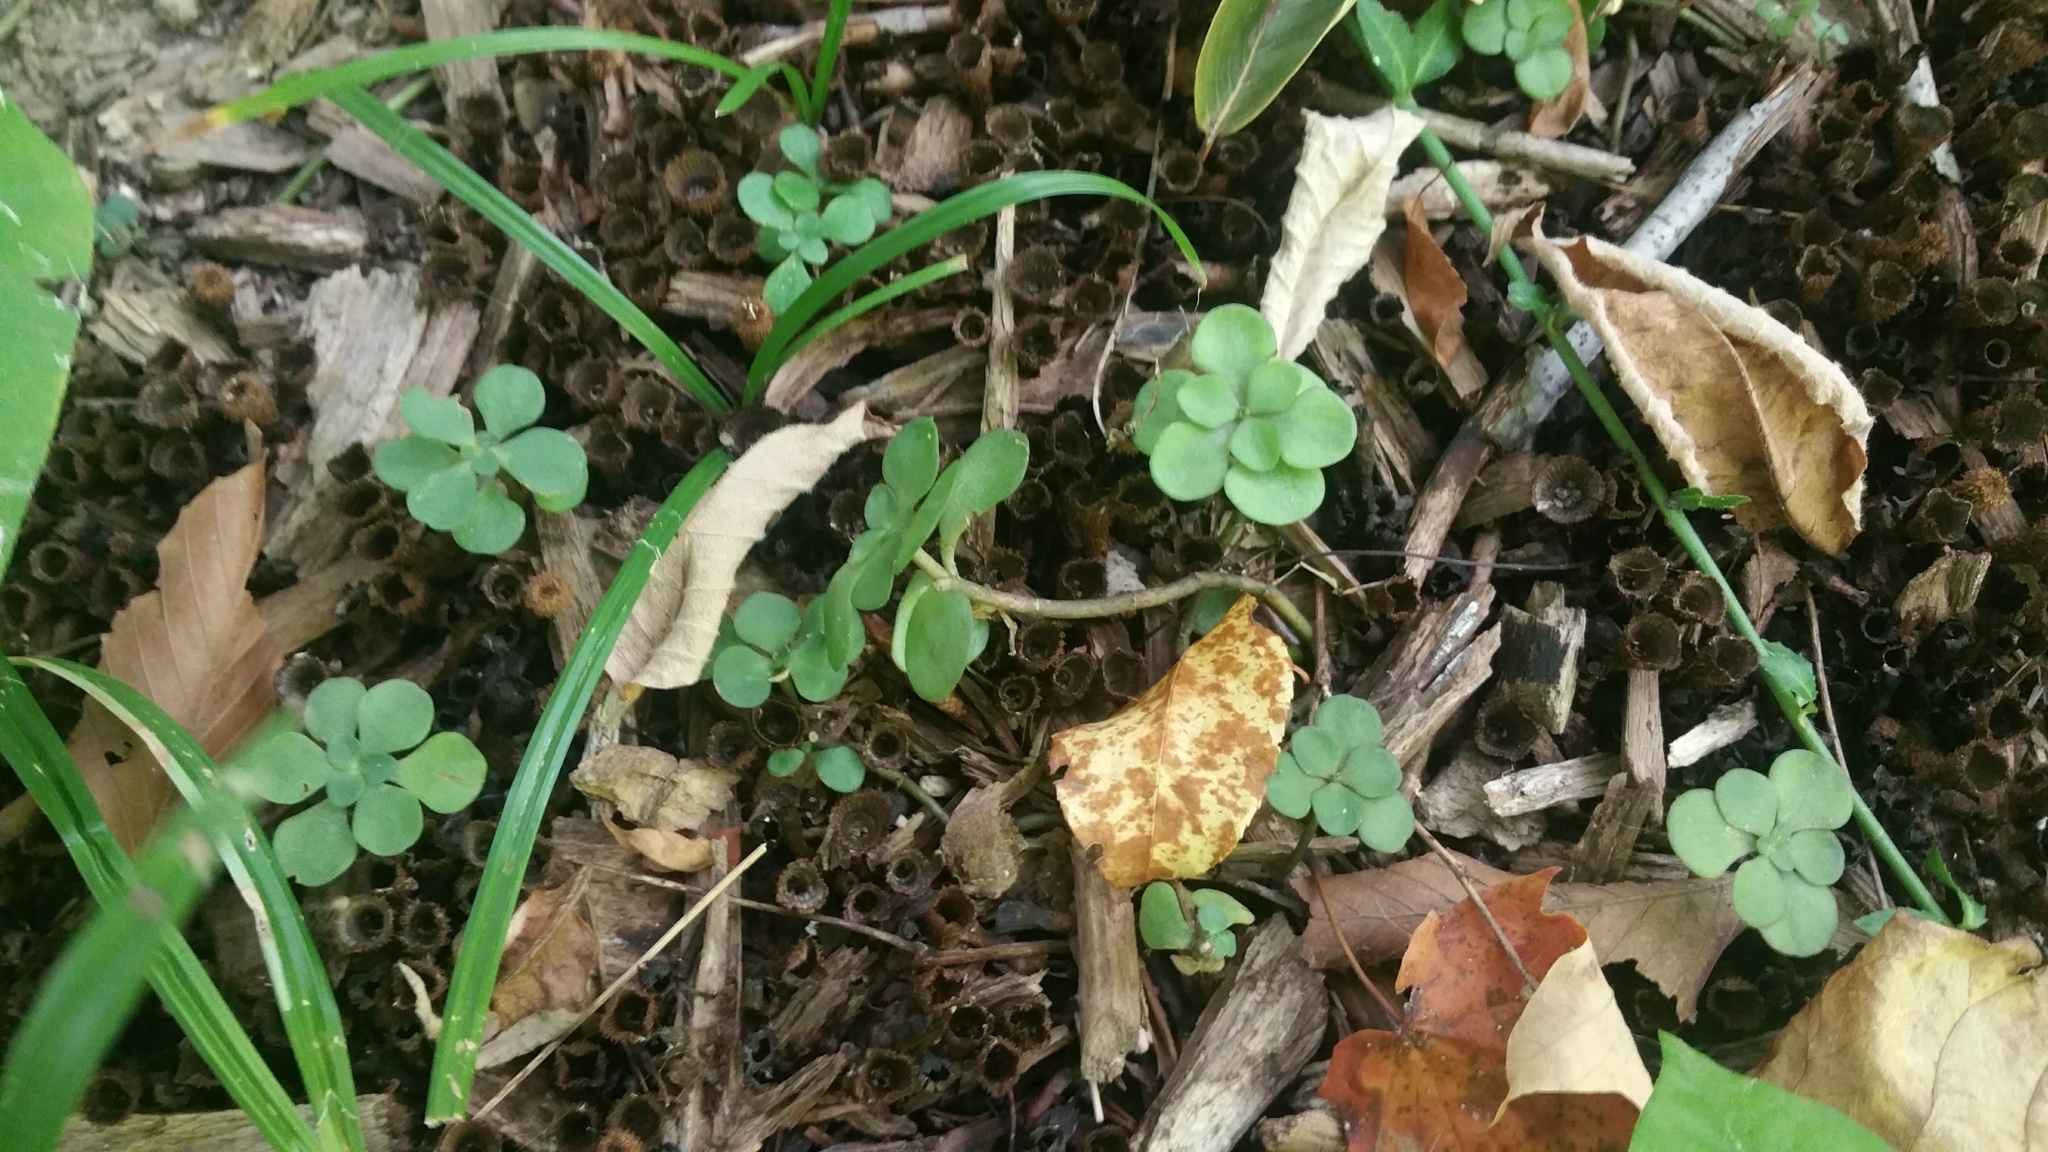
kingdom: Plantae
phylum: Tracheophyta
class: Magnoliopsida
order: Saxifragales
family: Crassulaceae
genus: Sedum
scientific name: Sedum ternatum
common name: Wild stonecrop
